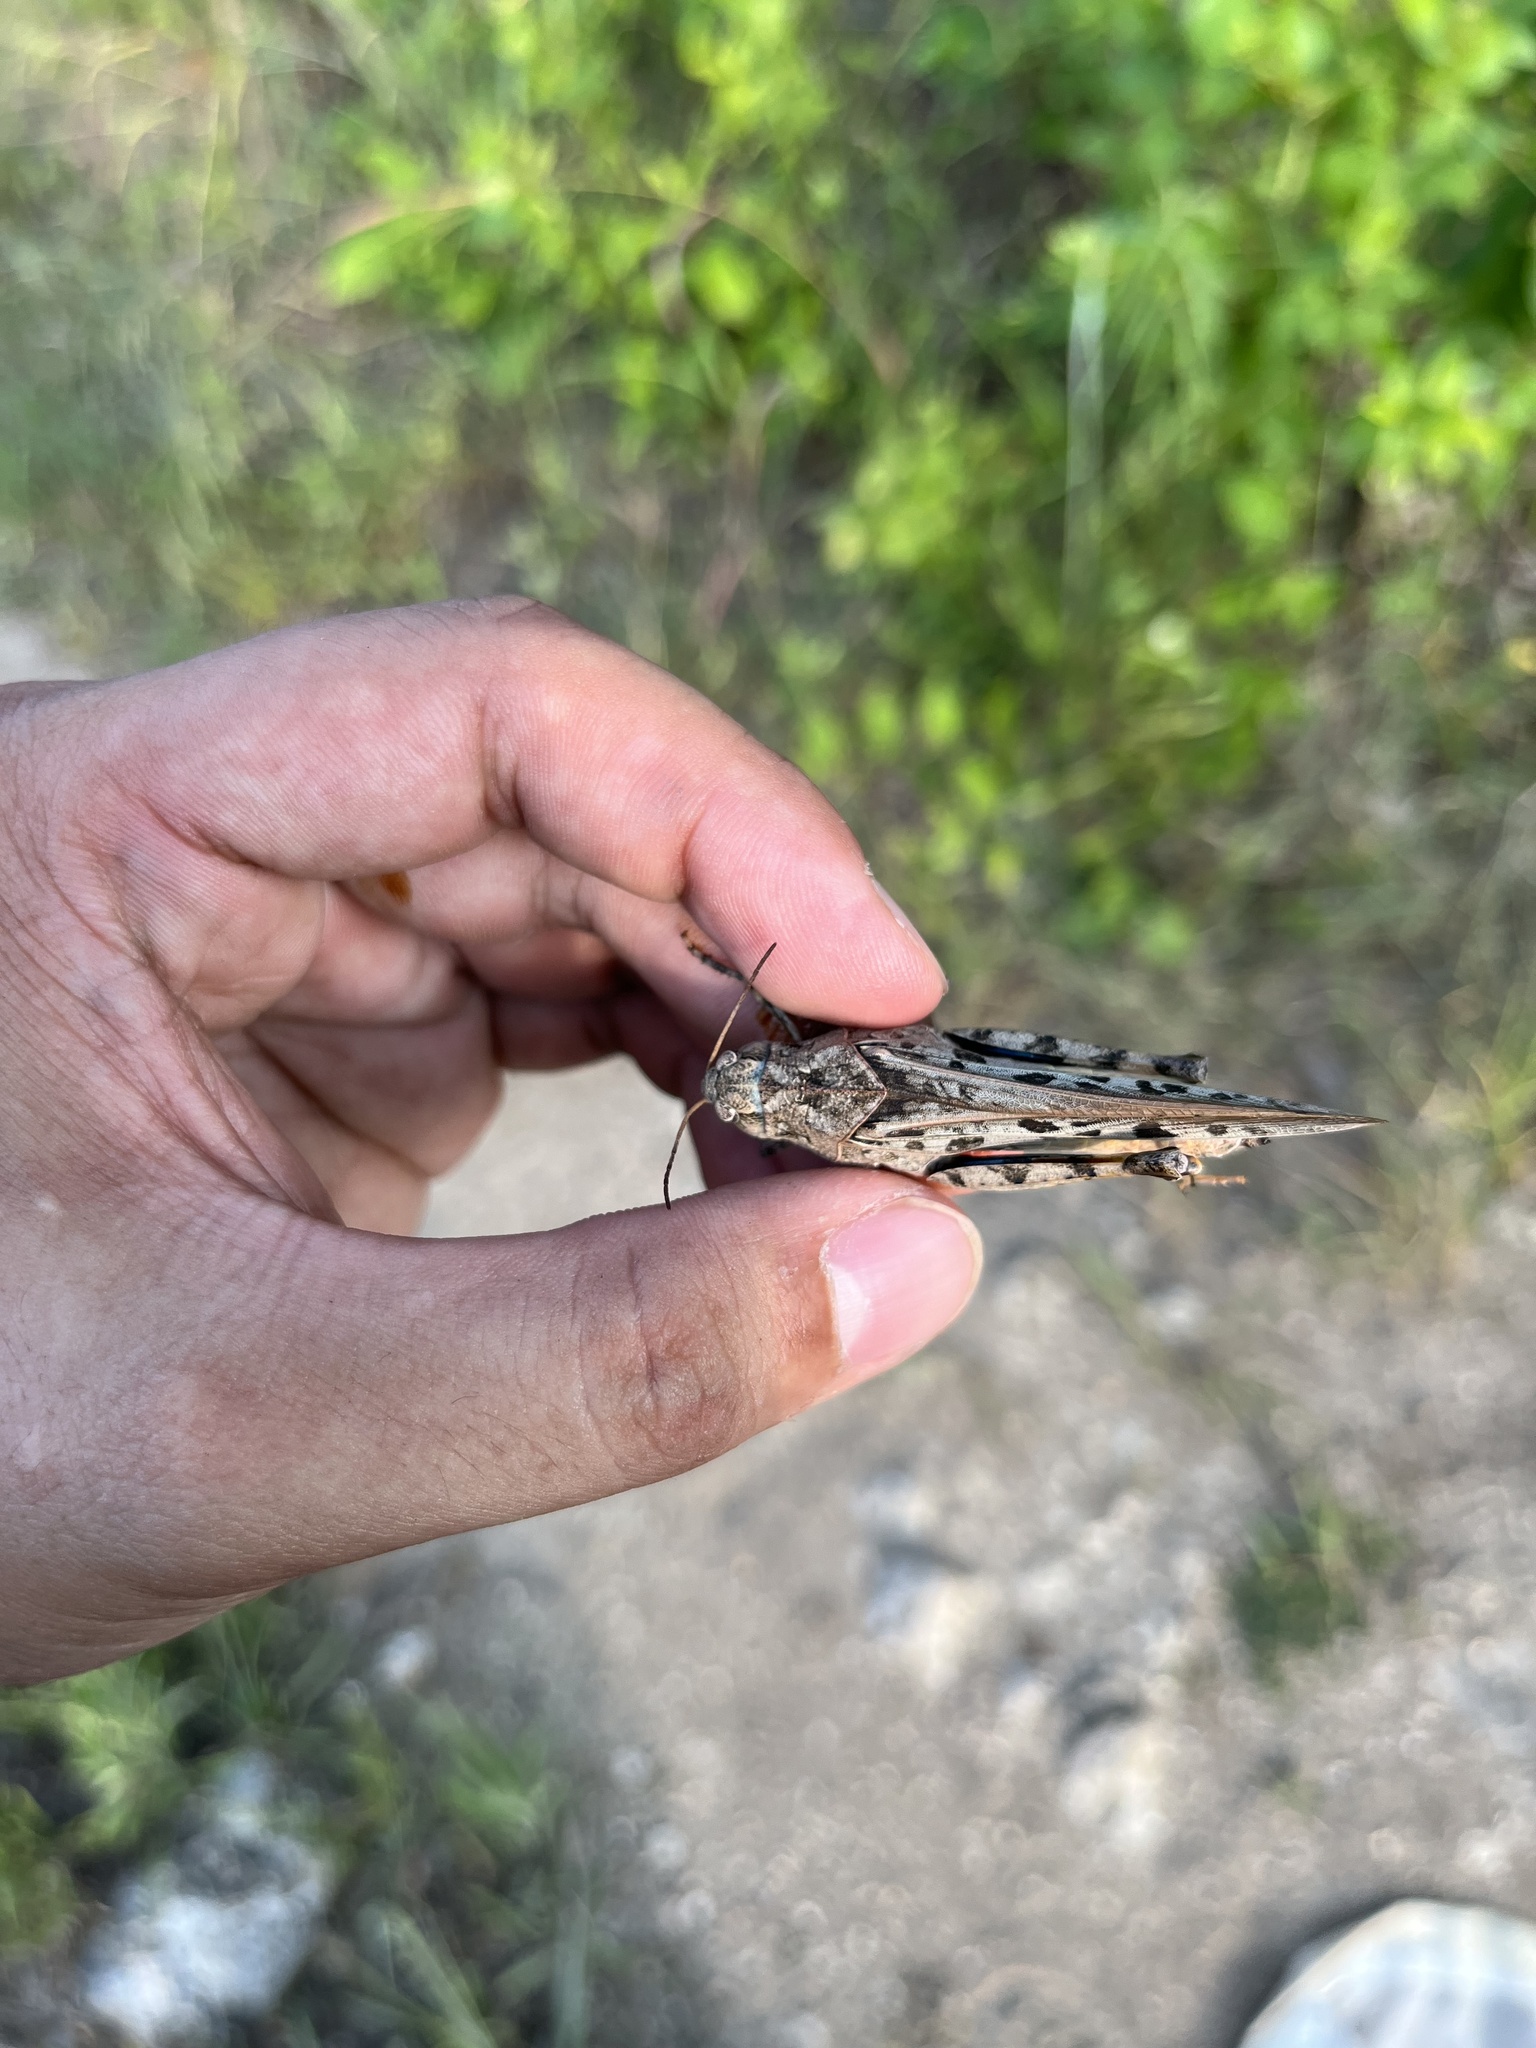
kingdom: Animalia
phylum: Arthropoda
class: Insecta
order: Orthoptera
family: Acrididae
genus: Pardalophora
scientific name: Pardalophora phoenicoptera
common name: Orange-winged grasshopper
